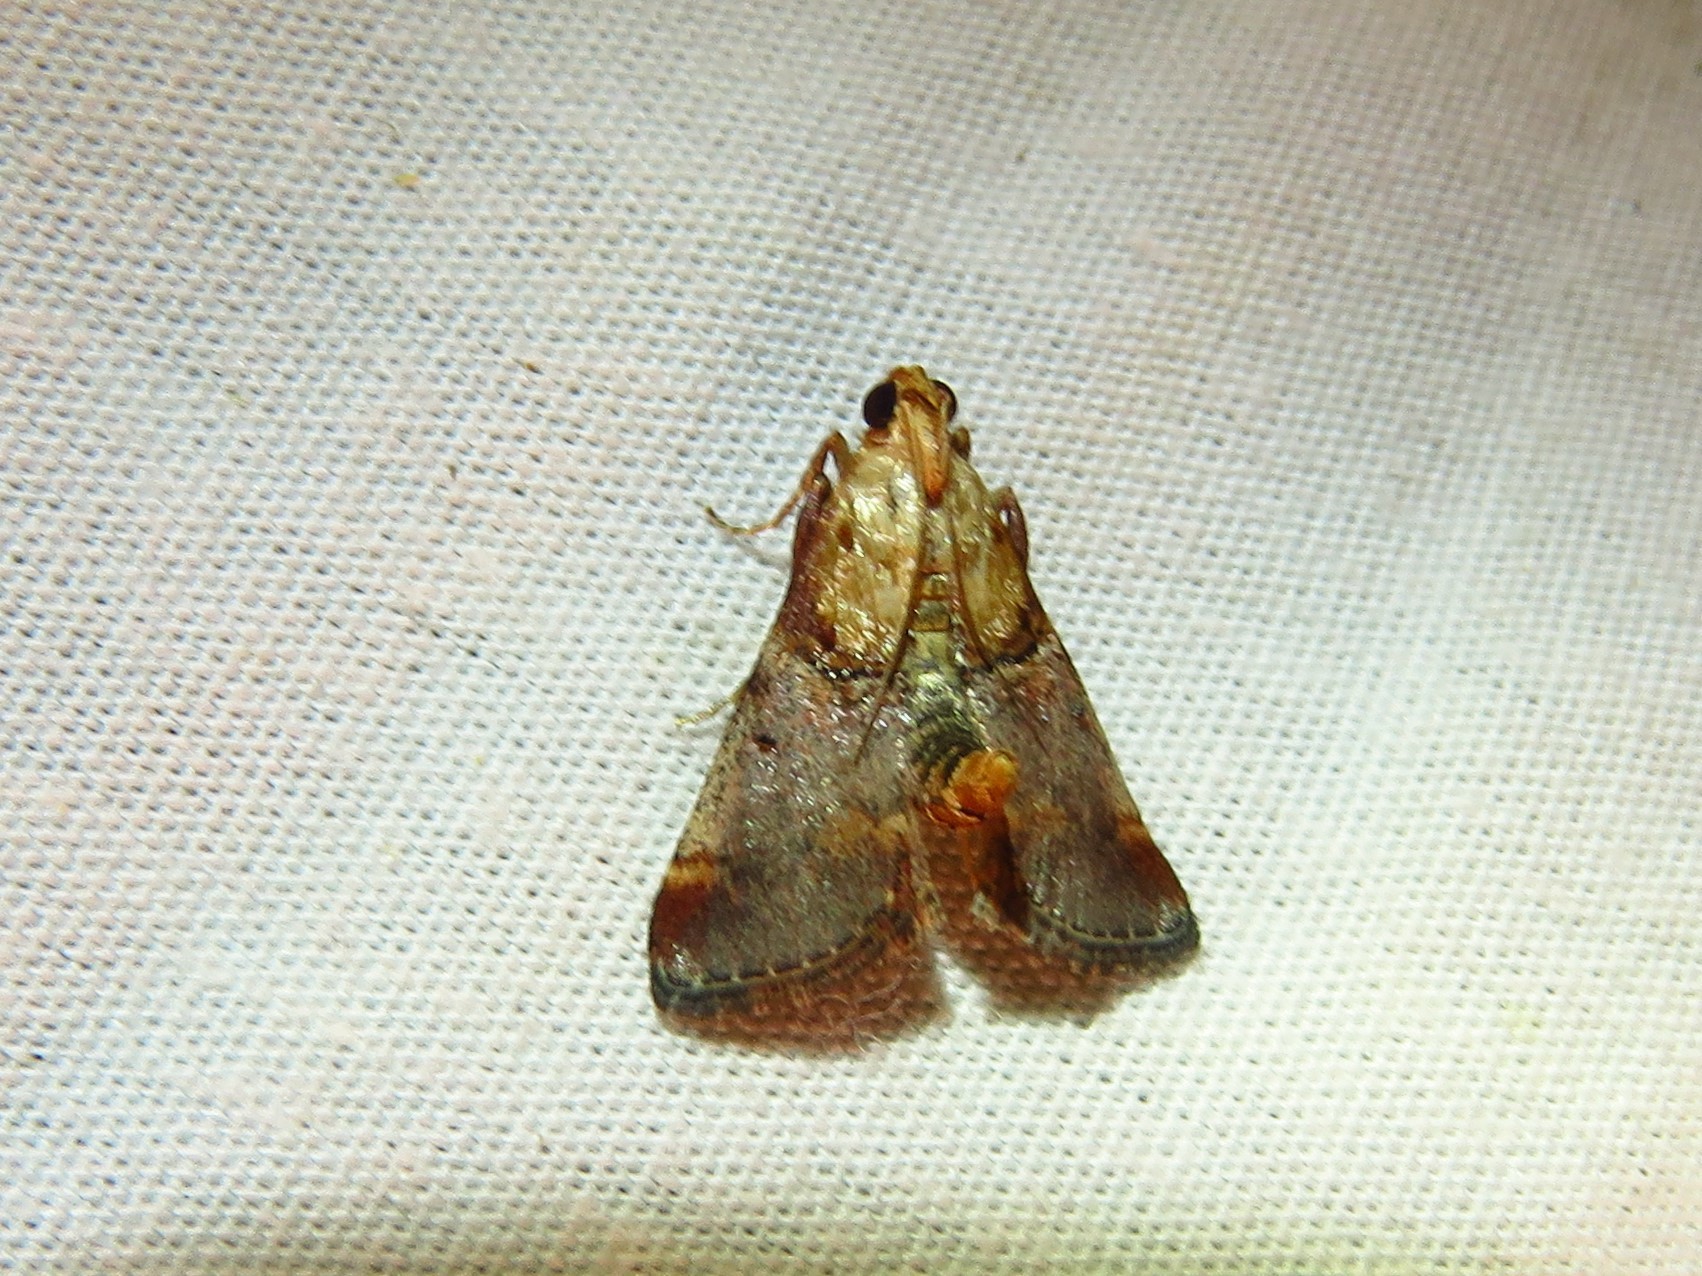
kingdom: Animalia
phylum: Arthropoda
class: Insecta
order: Lepidoptera
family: Pyralidae
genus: Cacozelia
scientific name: Cacozelia basiochrealis
